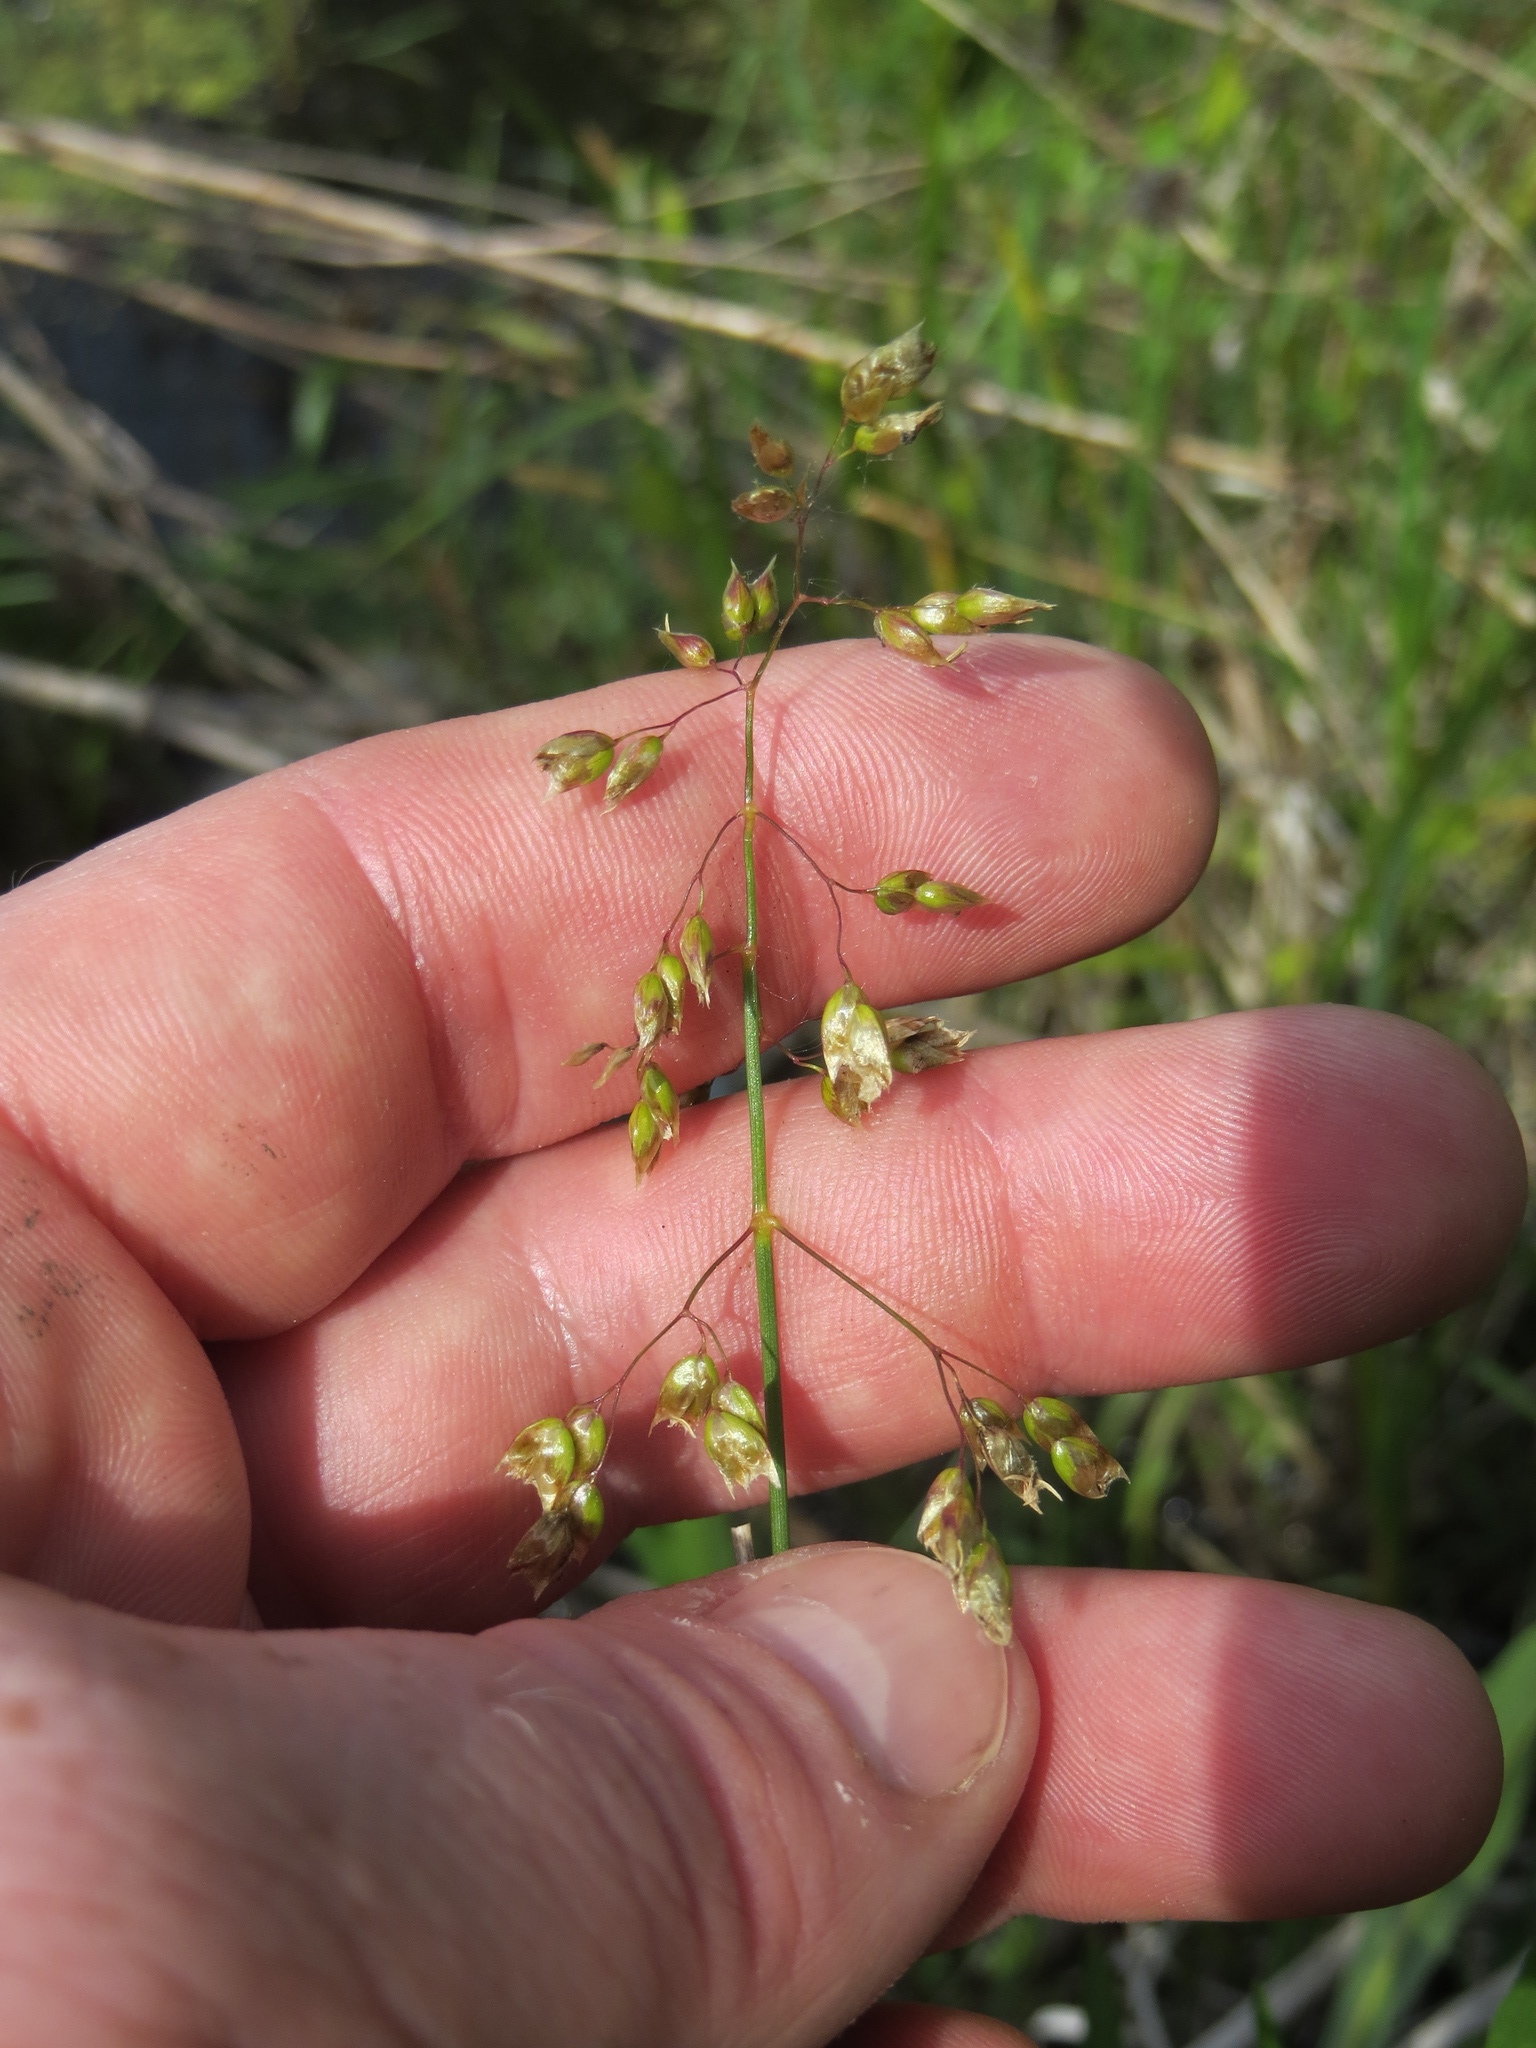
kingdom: Plantae
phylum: Tracheophyta
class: Liliopsida
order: Poales
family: Poaceae
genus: Anthoxanthum
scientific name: Anthoxanthum nitens
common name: Holy grass
